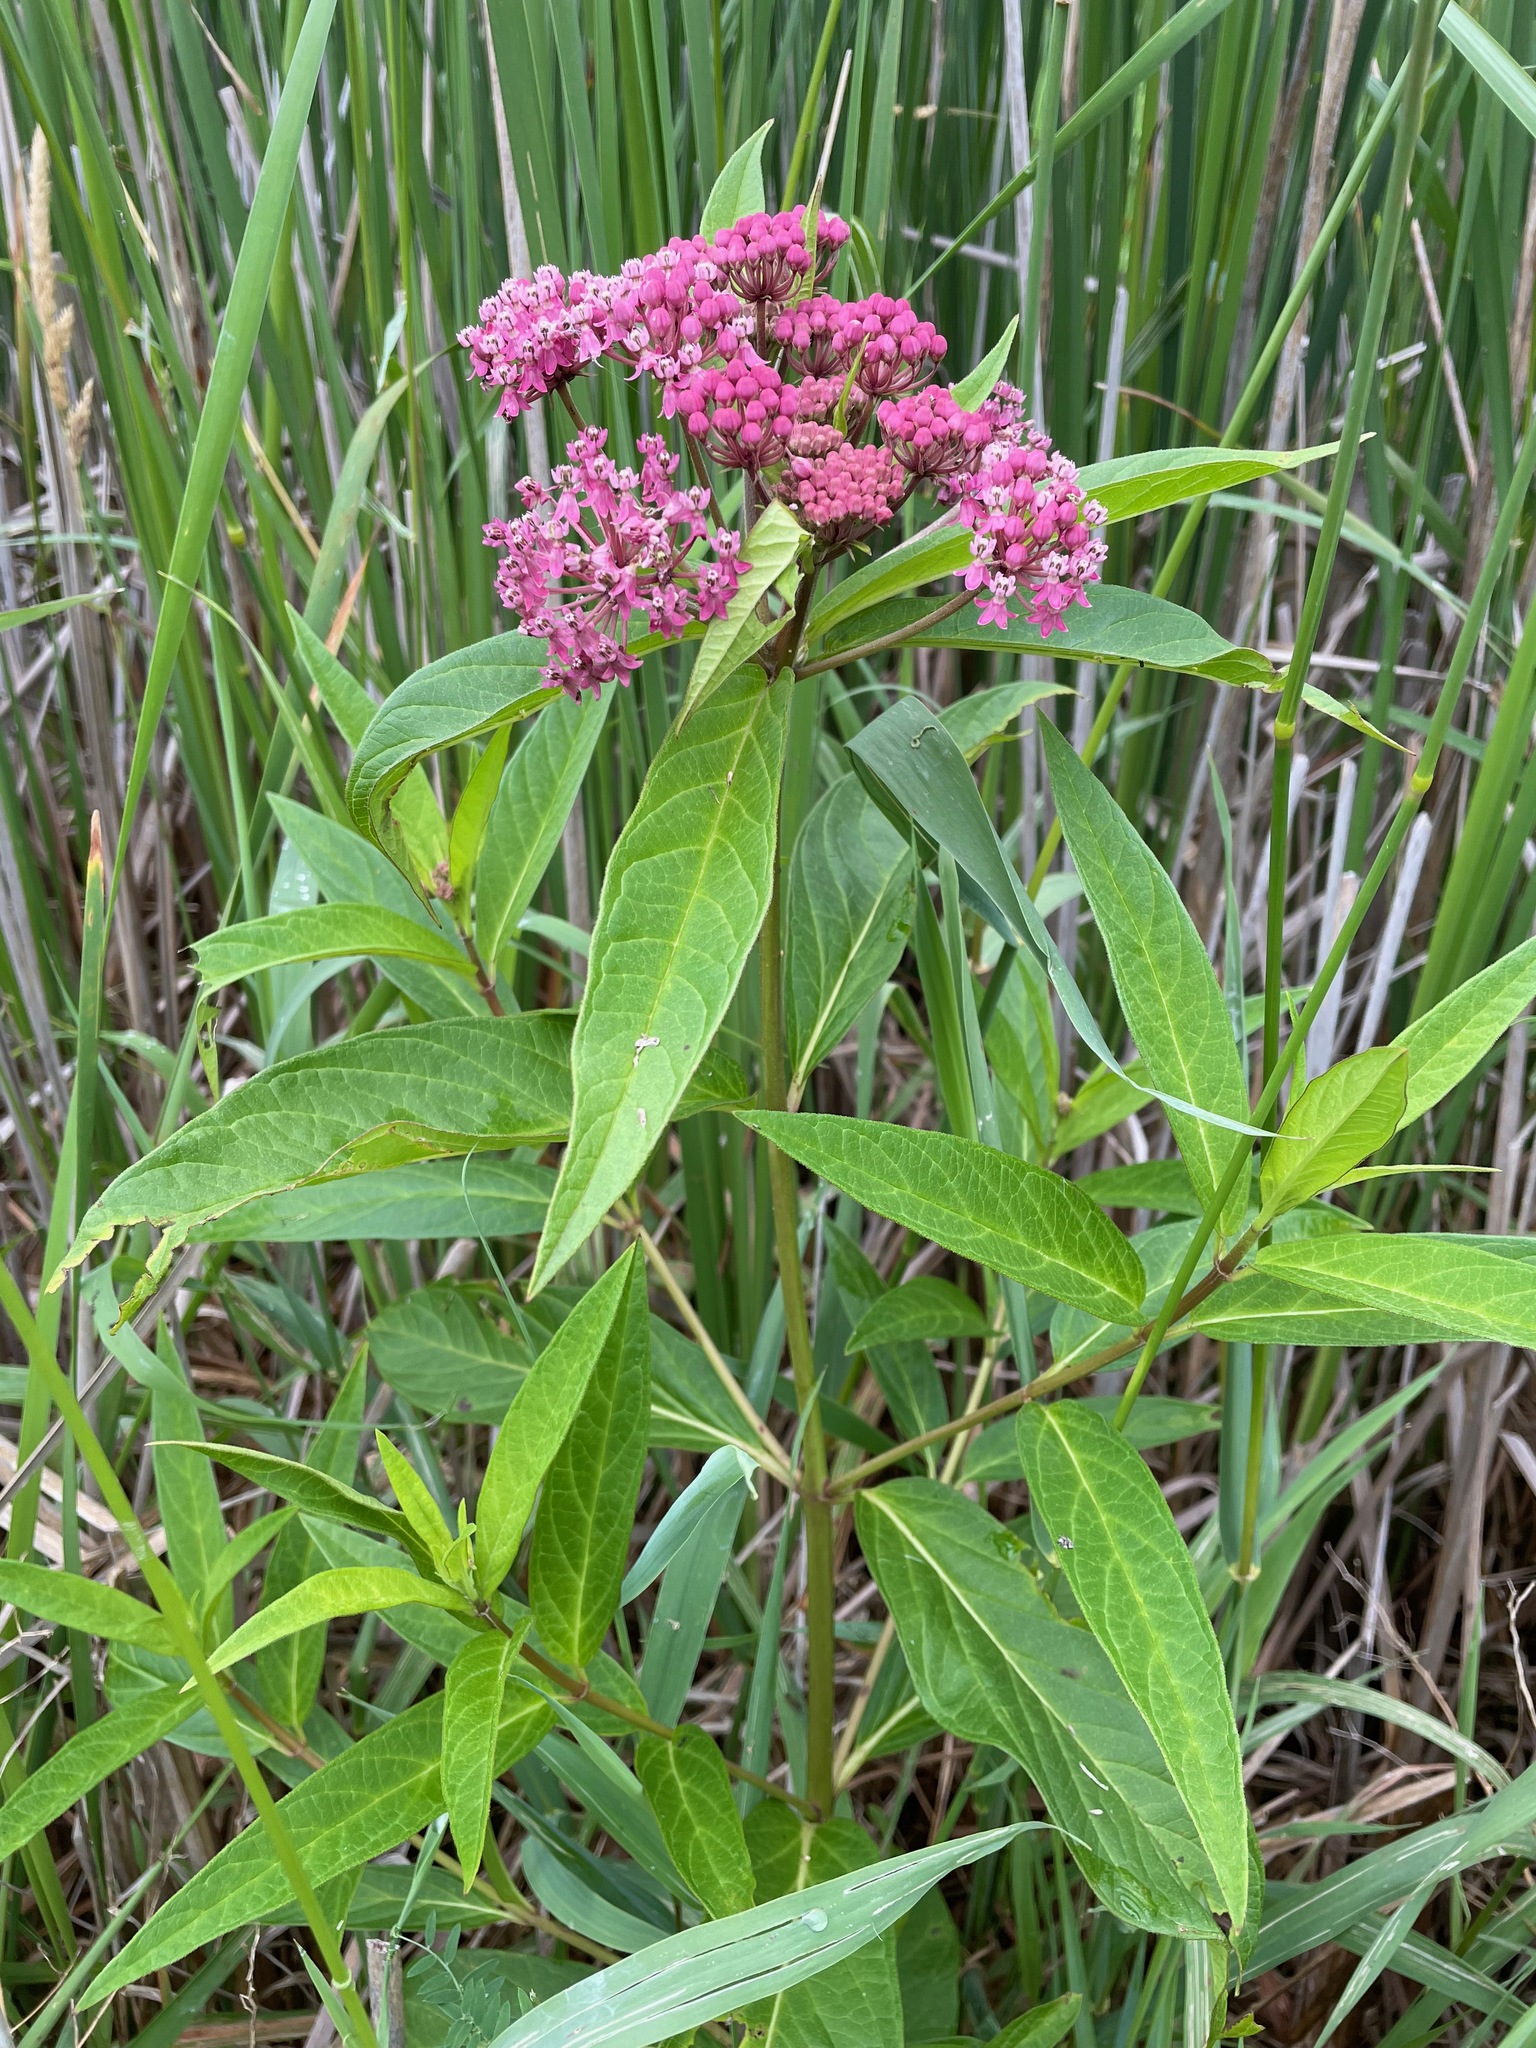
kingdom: Plantae
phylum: Tracheophyta
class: Magnoliopsida
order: Gentianales
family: Apocynaceae
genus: Asclepias
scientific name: Asclepias incarnata
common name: Swamp milkweed
